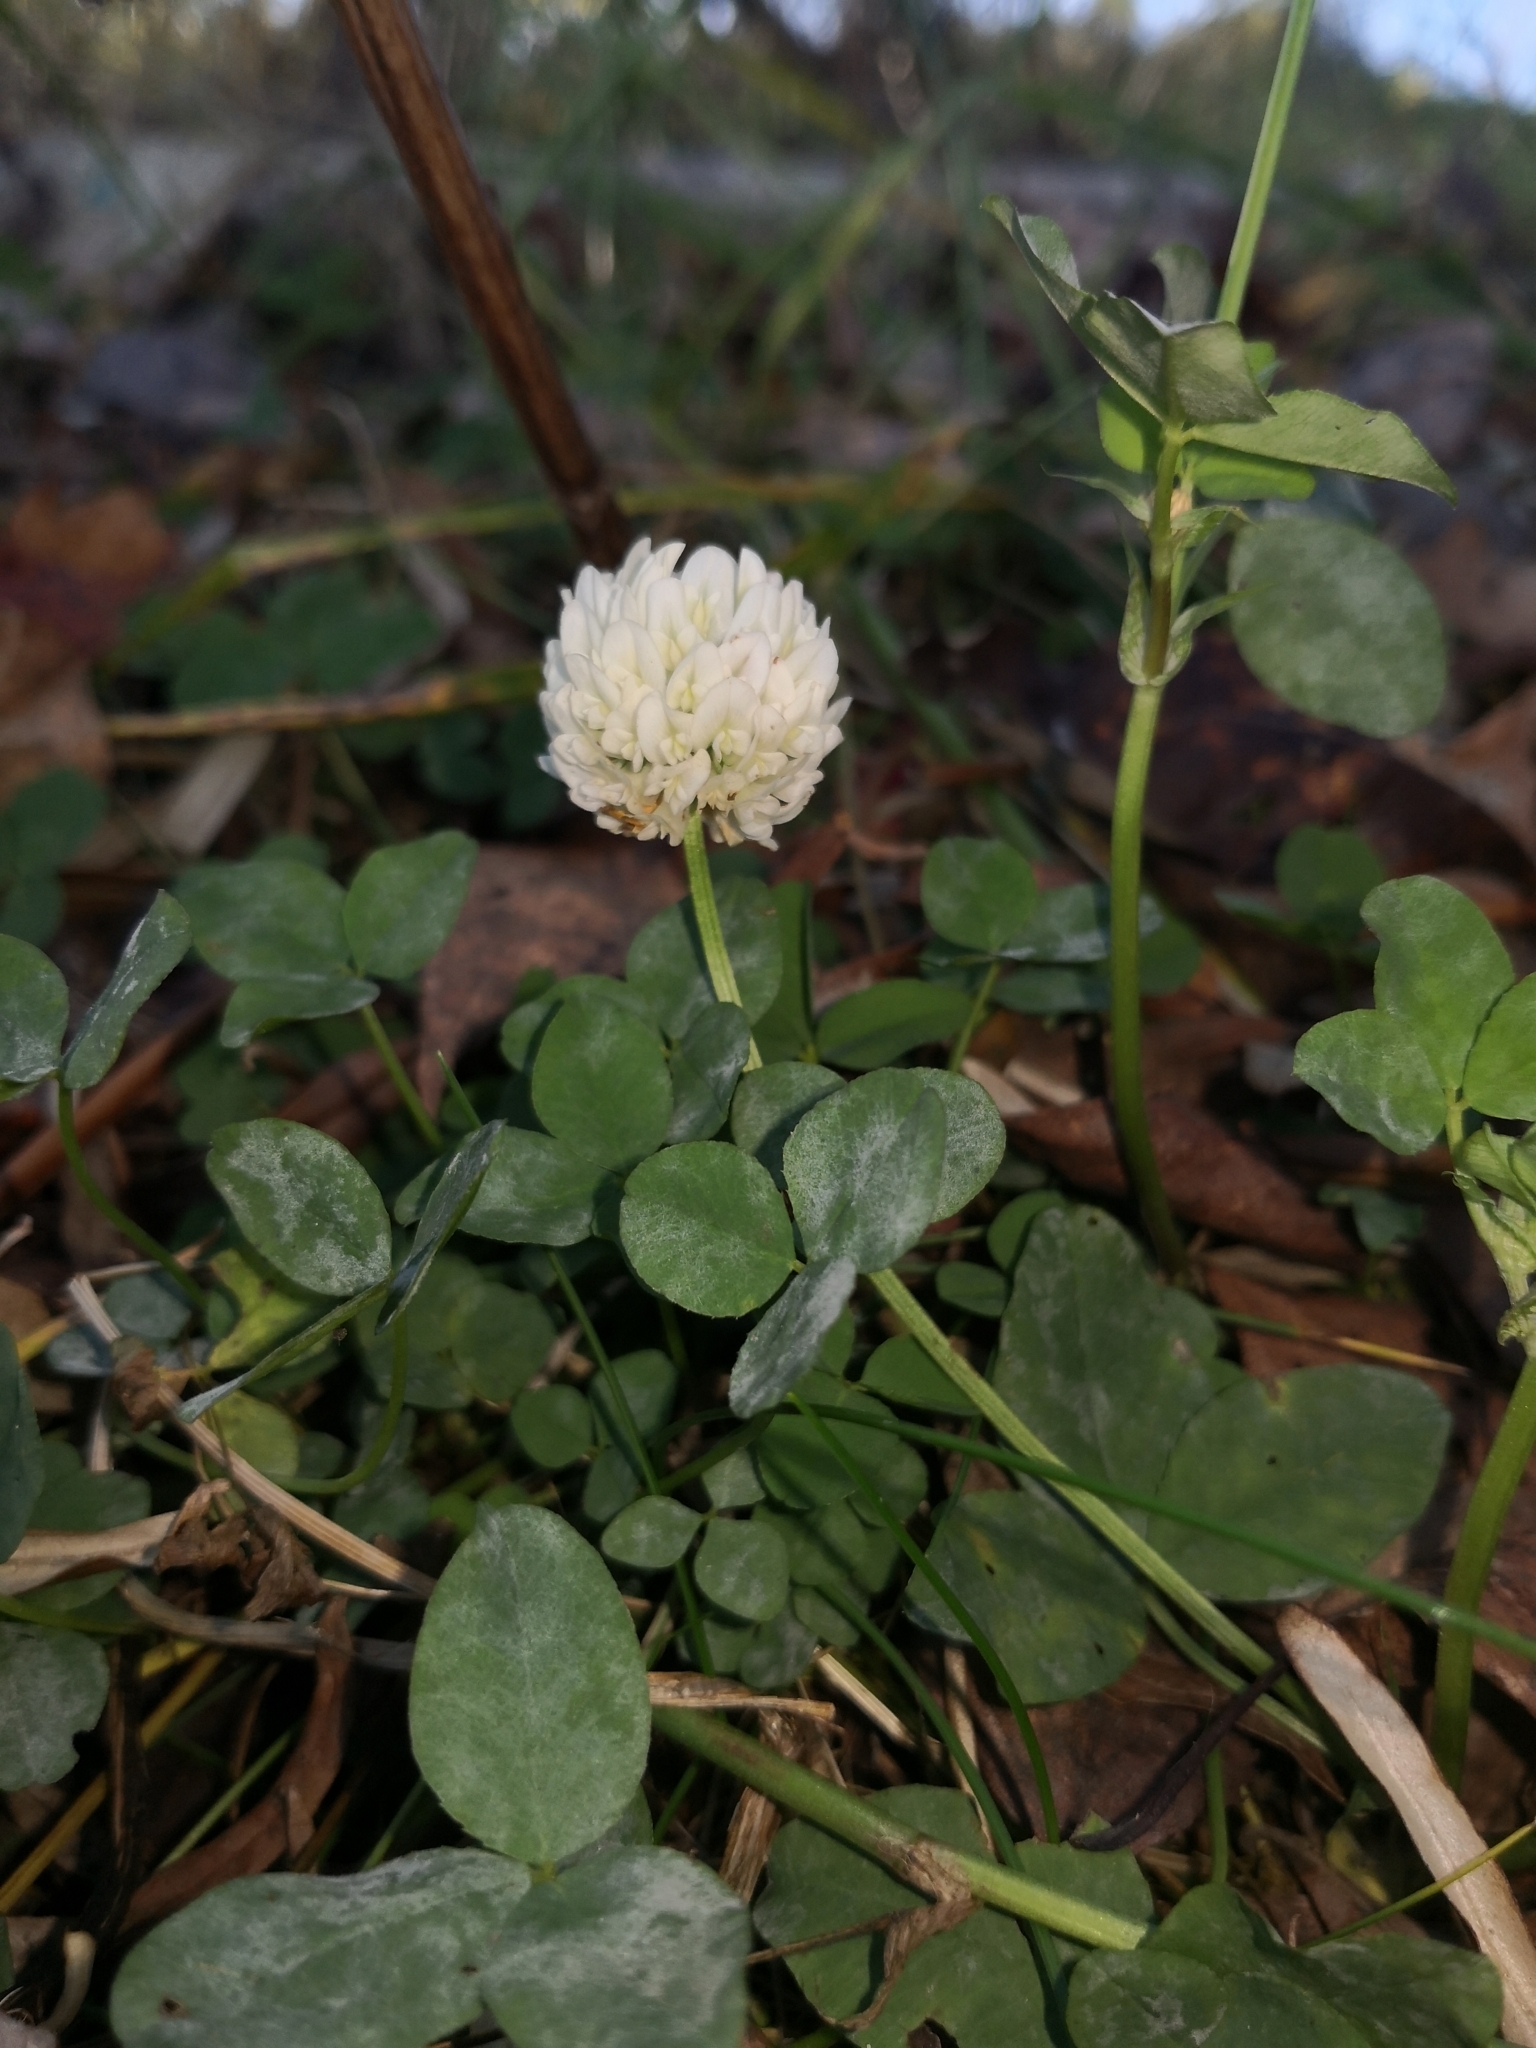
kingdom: Plantae
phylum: Tracheophyta
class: Magnoliopsida
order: Fabales
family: Fabaceae
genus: Trifolium
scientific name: Trifolium repens
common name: White clover
